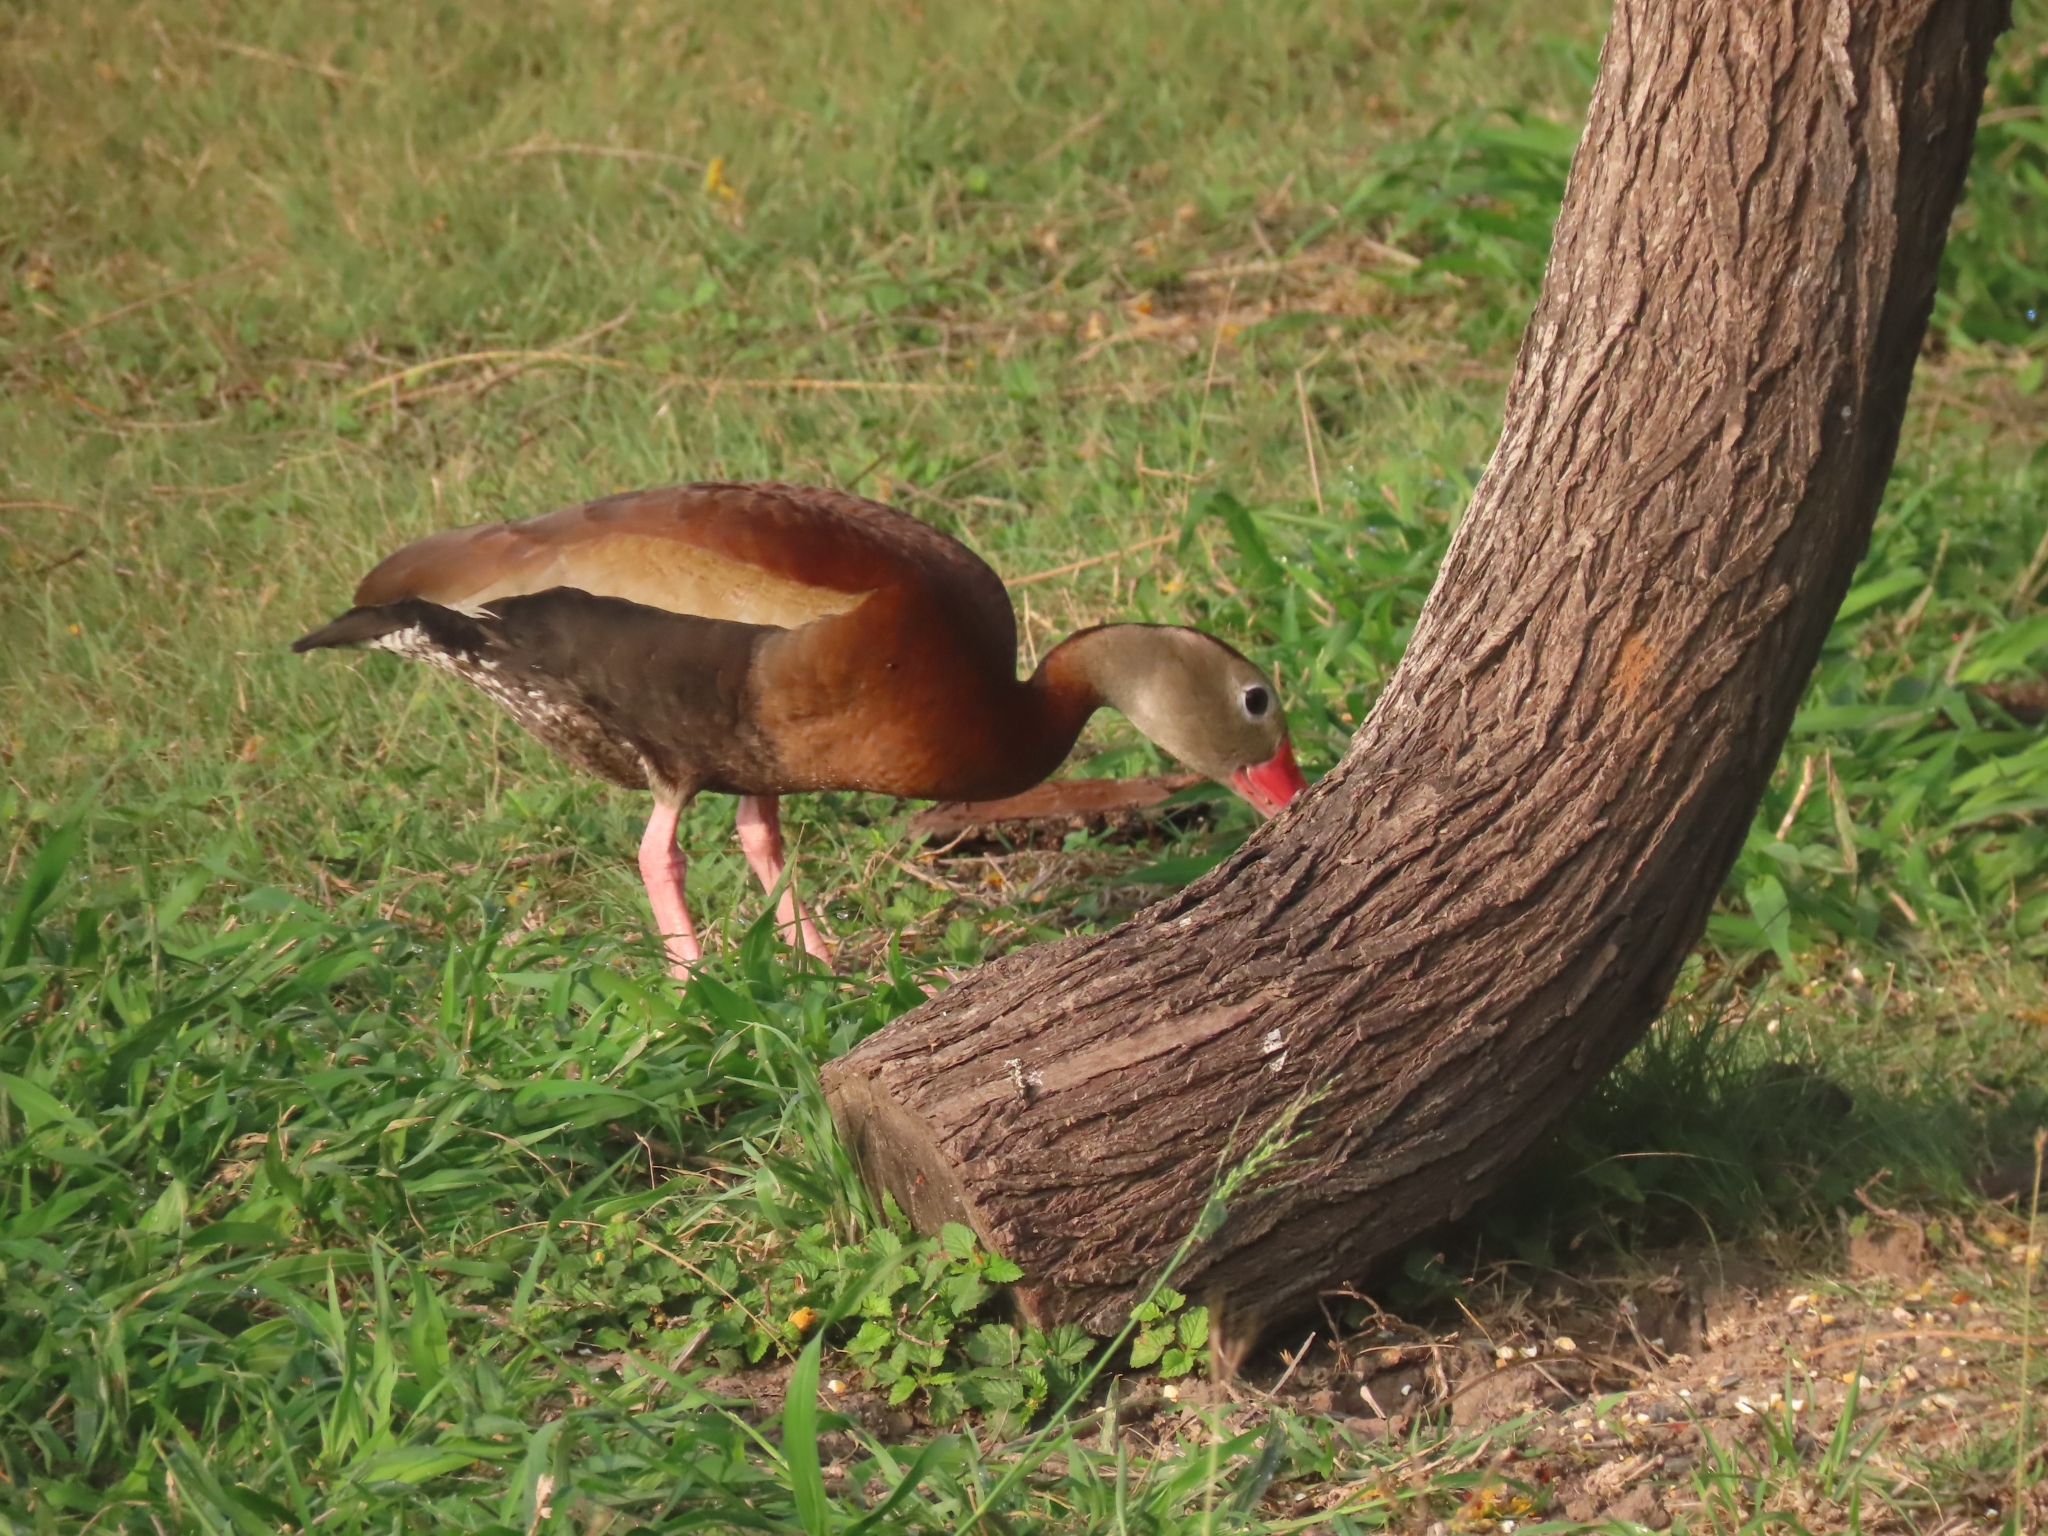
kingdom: Animalia
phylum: Chordata
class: Aves
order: Anseriformes
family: Anatidae
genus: Dendrocygna
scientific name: Dendrocygna autumnalis
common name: Black-bellied whistling duck
